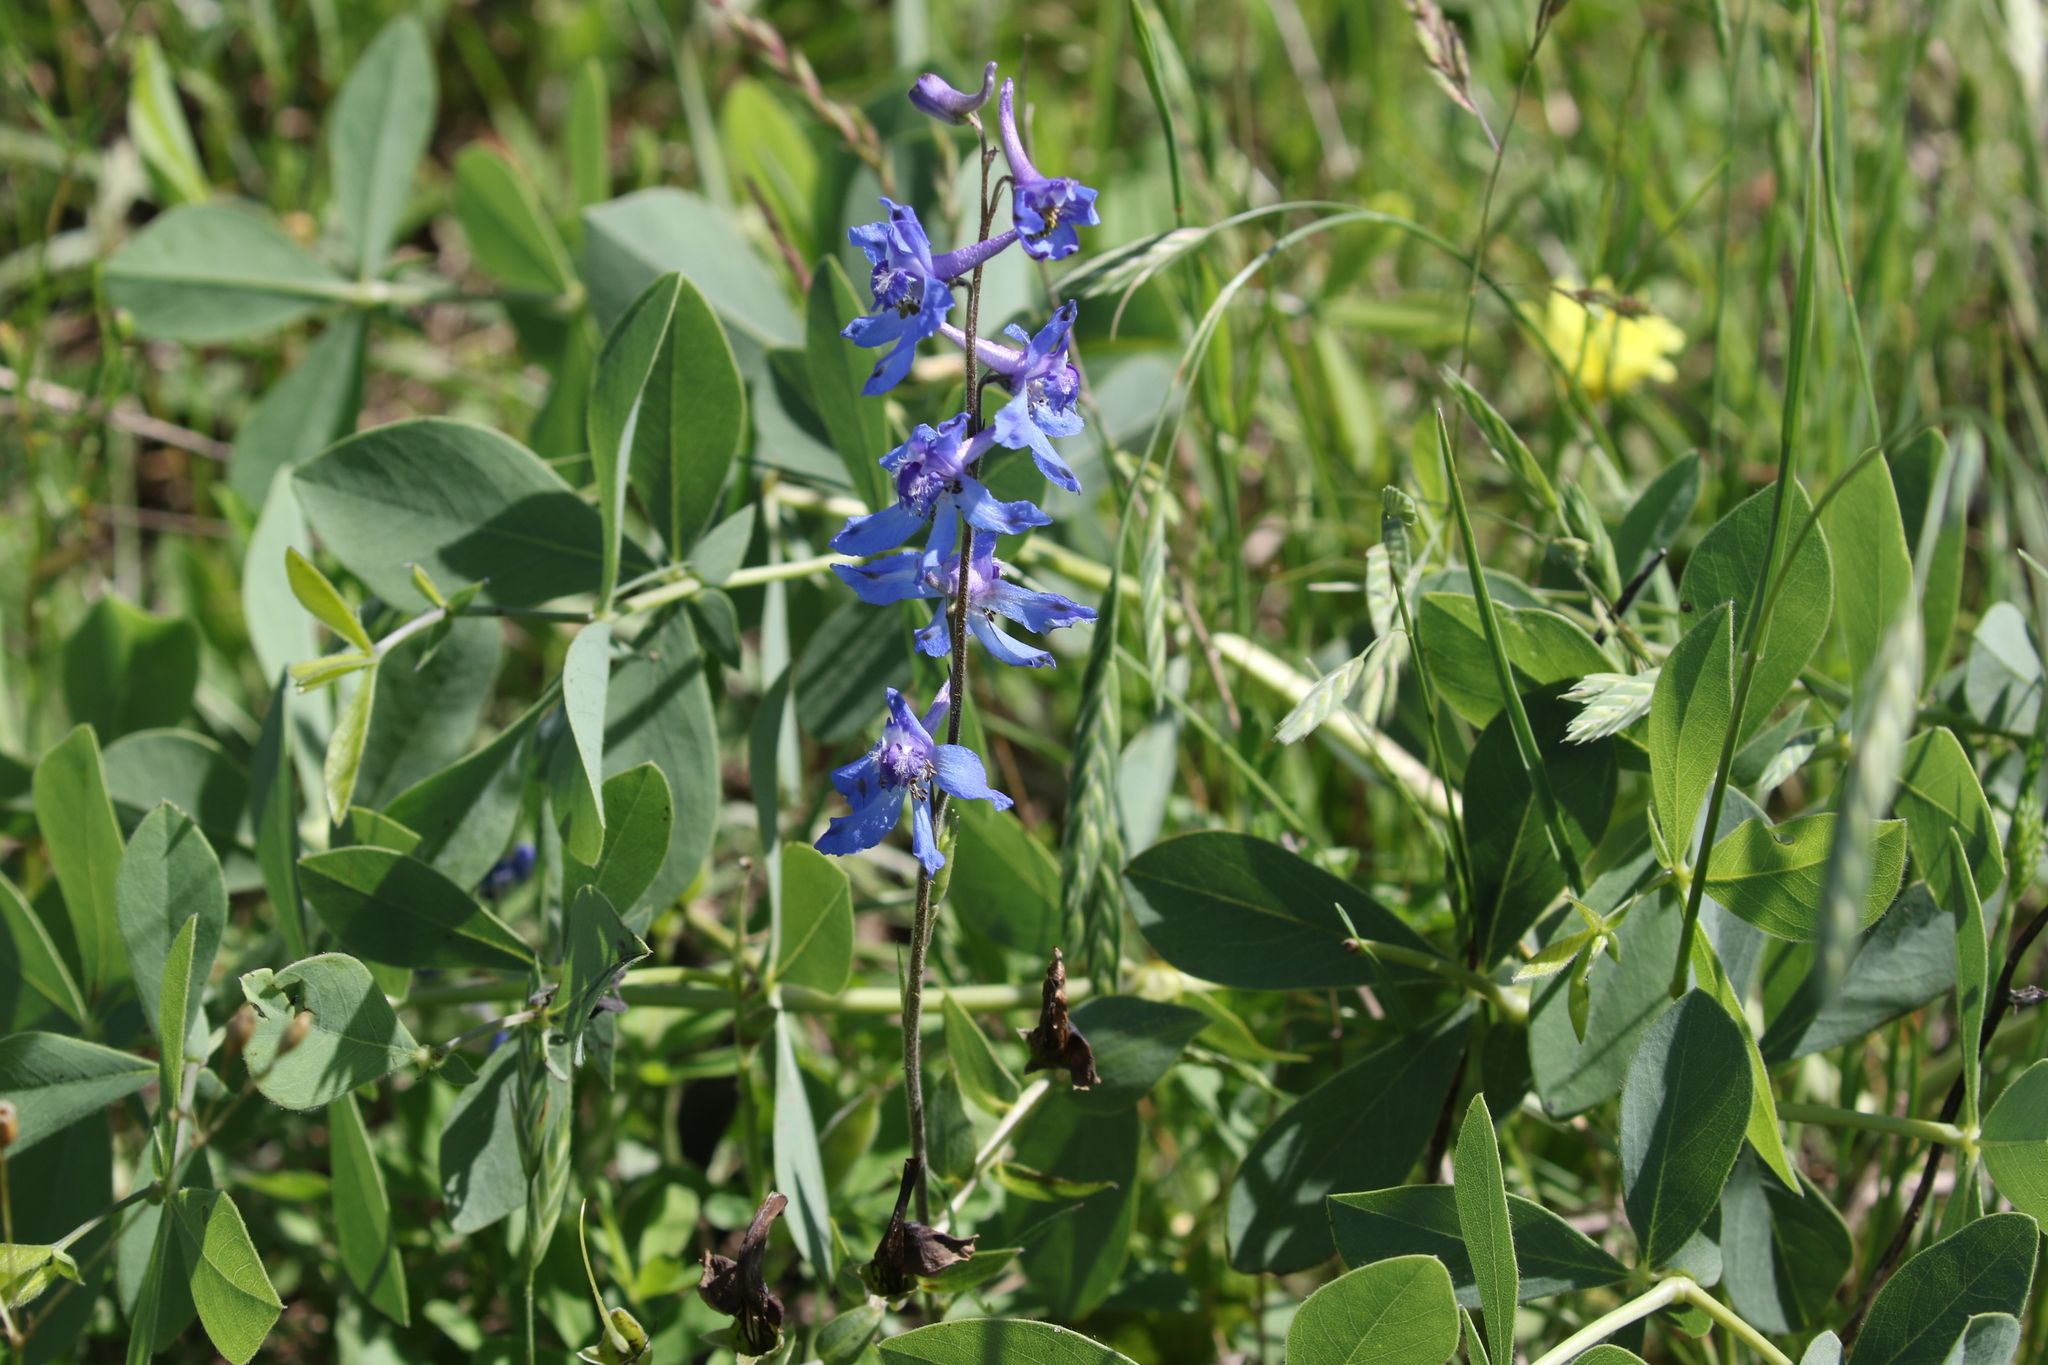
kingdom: Plantae
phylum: Tracheophyta
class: Magnoliopsida
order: Ranunculales
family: Ranunculaceae
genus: Delphinium
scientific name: Delphinium carolinianum
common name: Carolina larkspur
